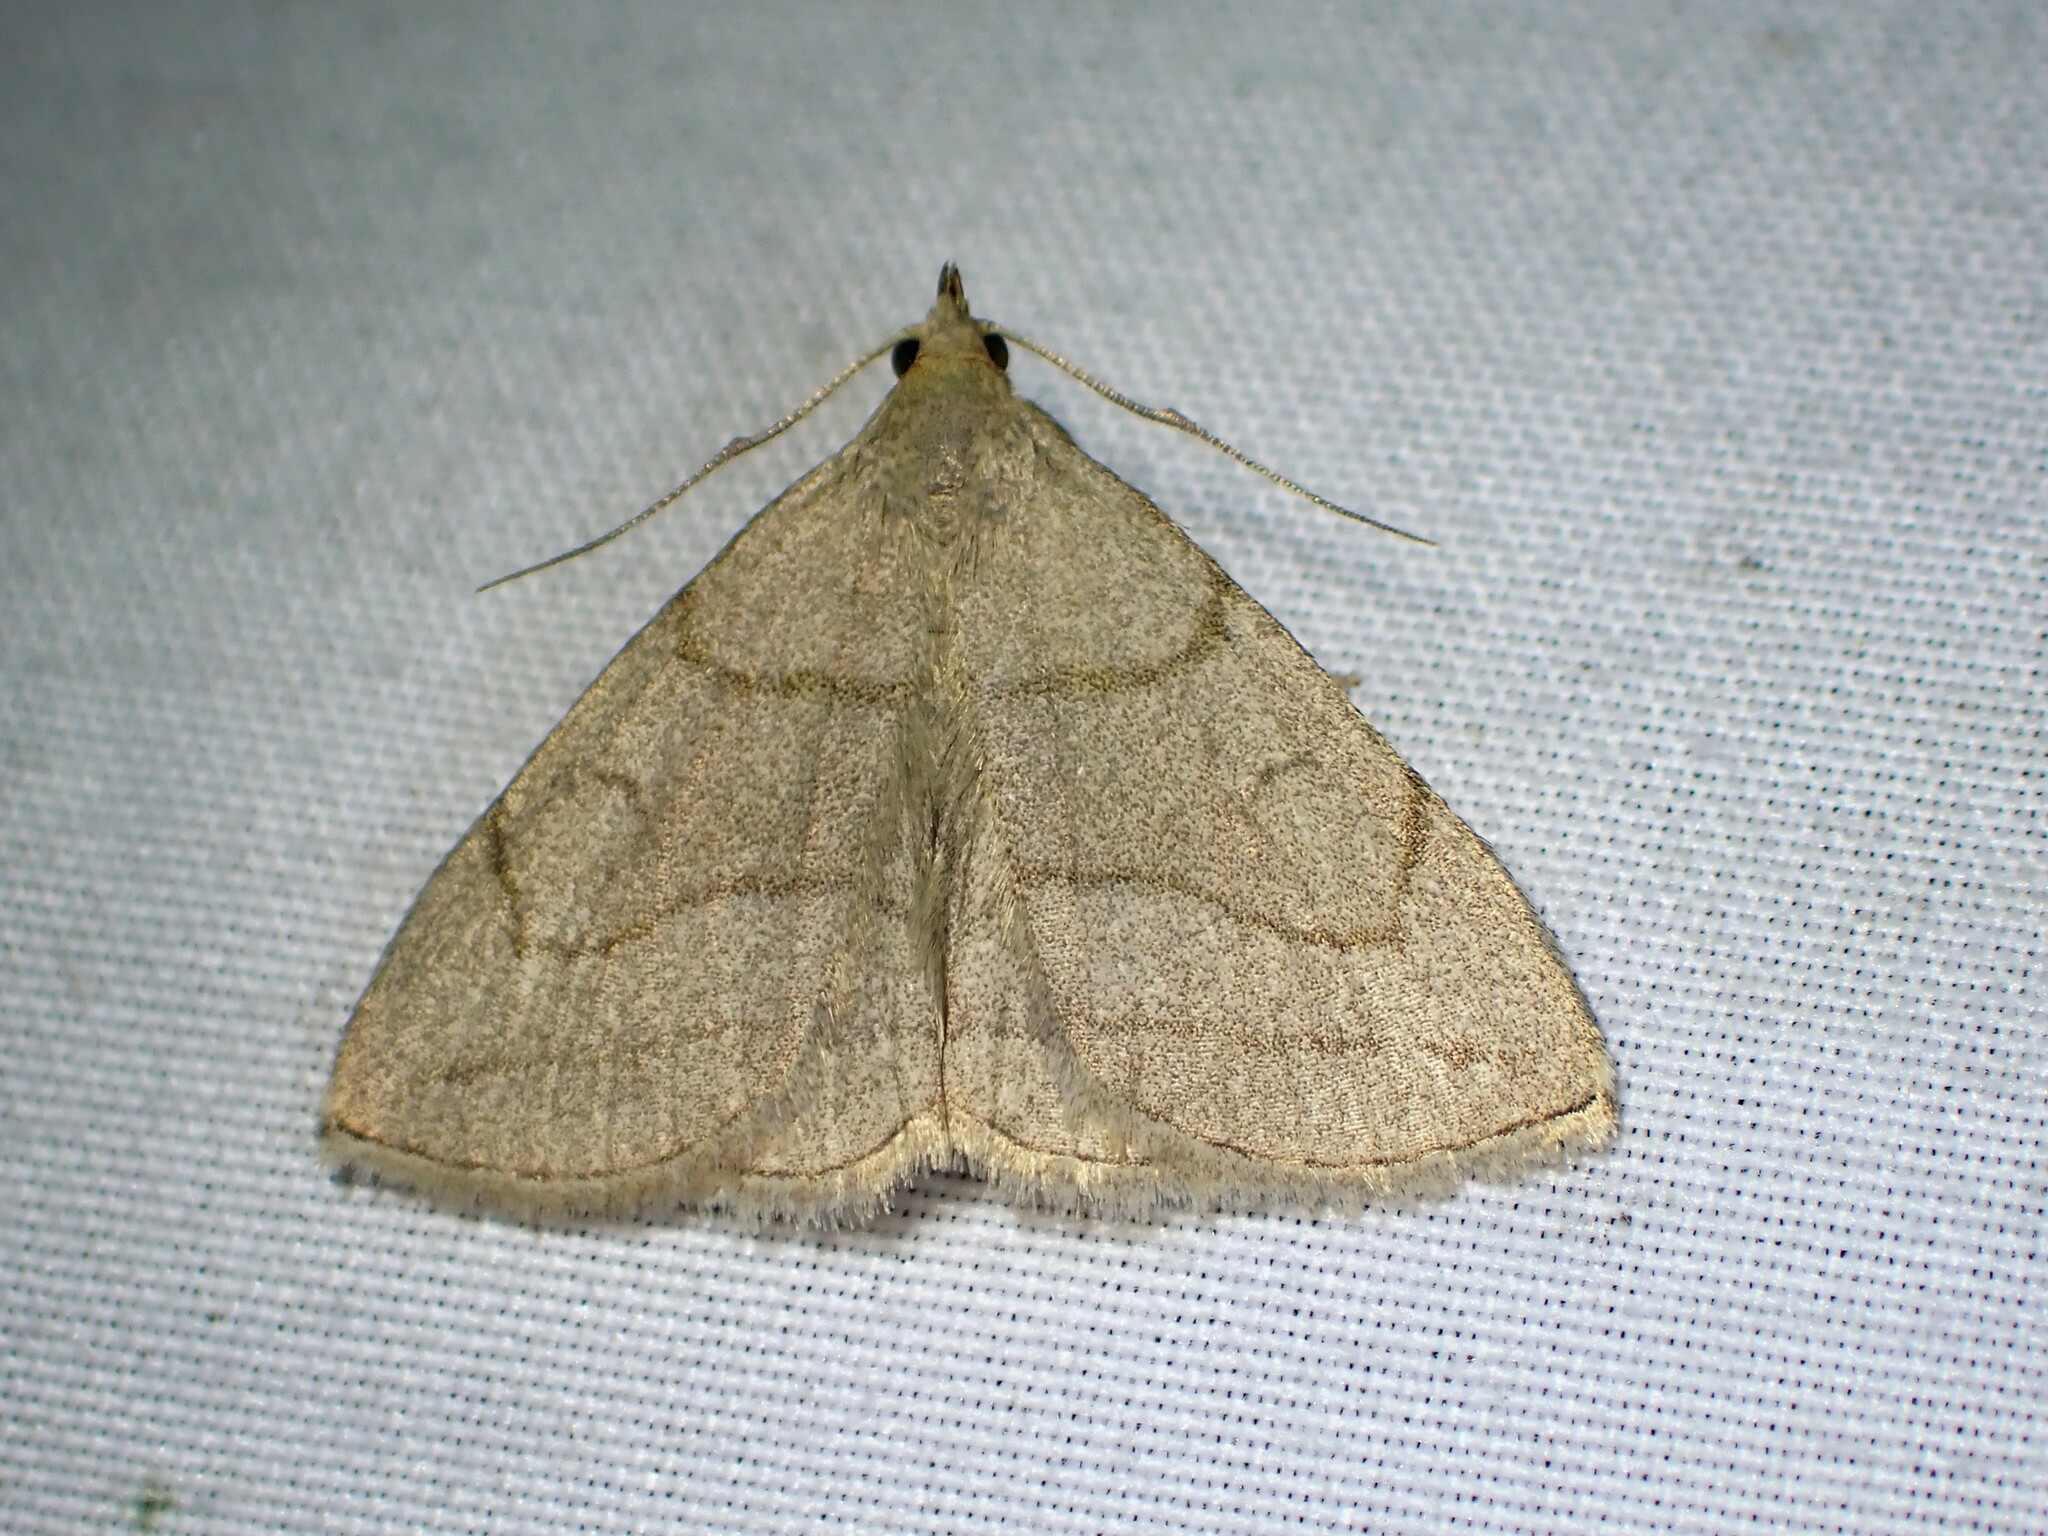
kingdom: Animalia
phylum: Arthropoda
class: Insecta
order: Lepidoptera
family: Erebidae
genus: Zanclognatha
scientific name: Zanclognatha pedipilalis
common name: Grayish fan-foot
